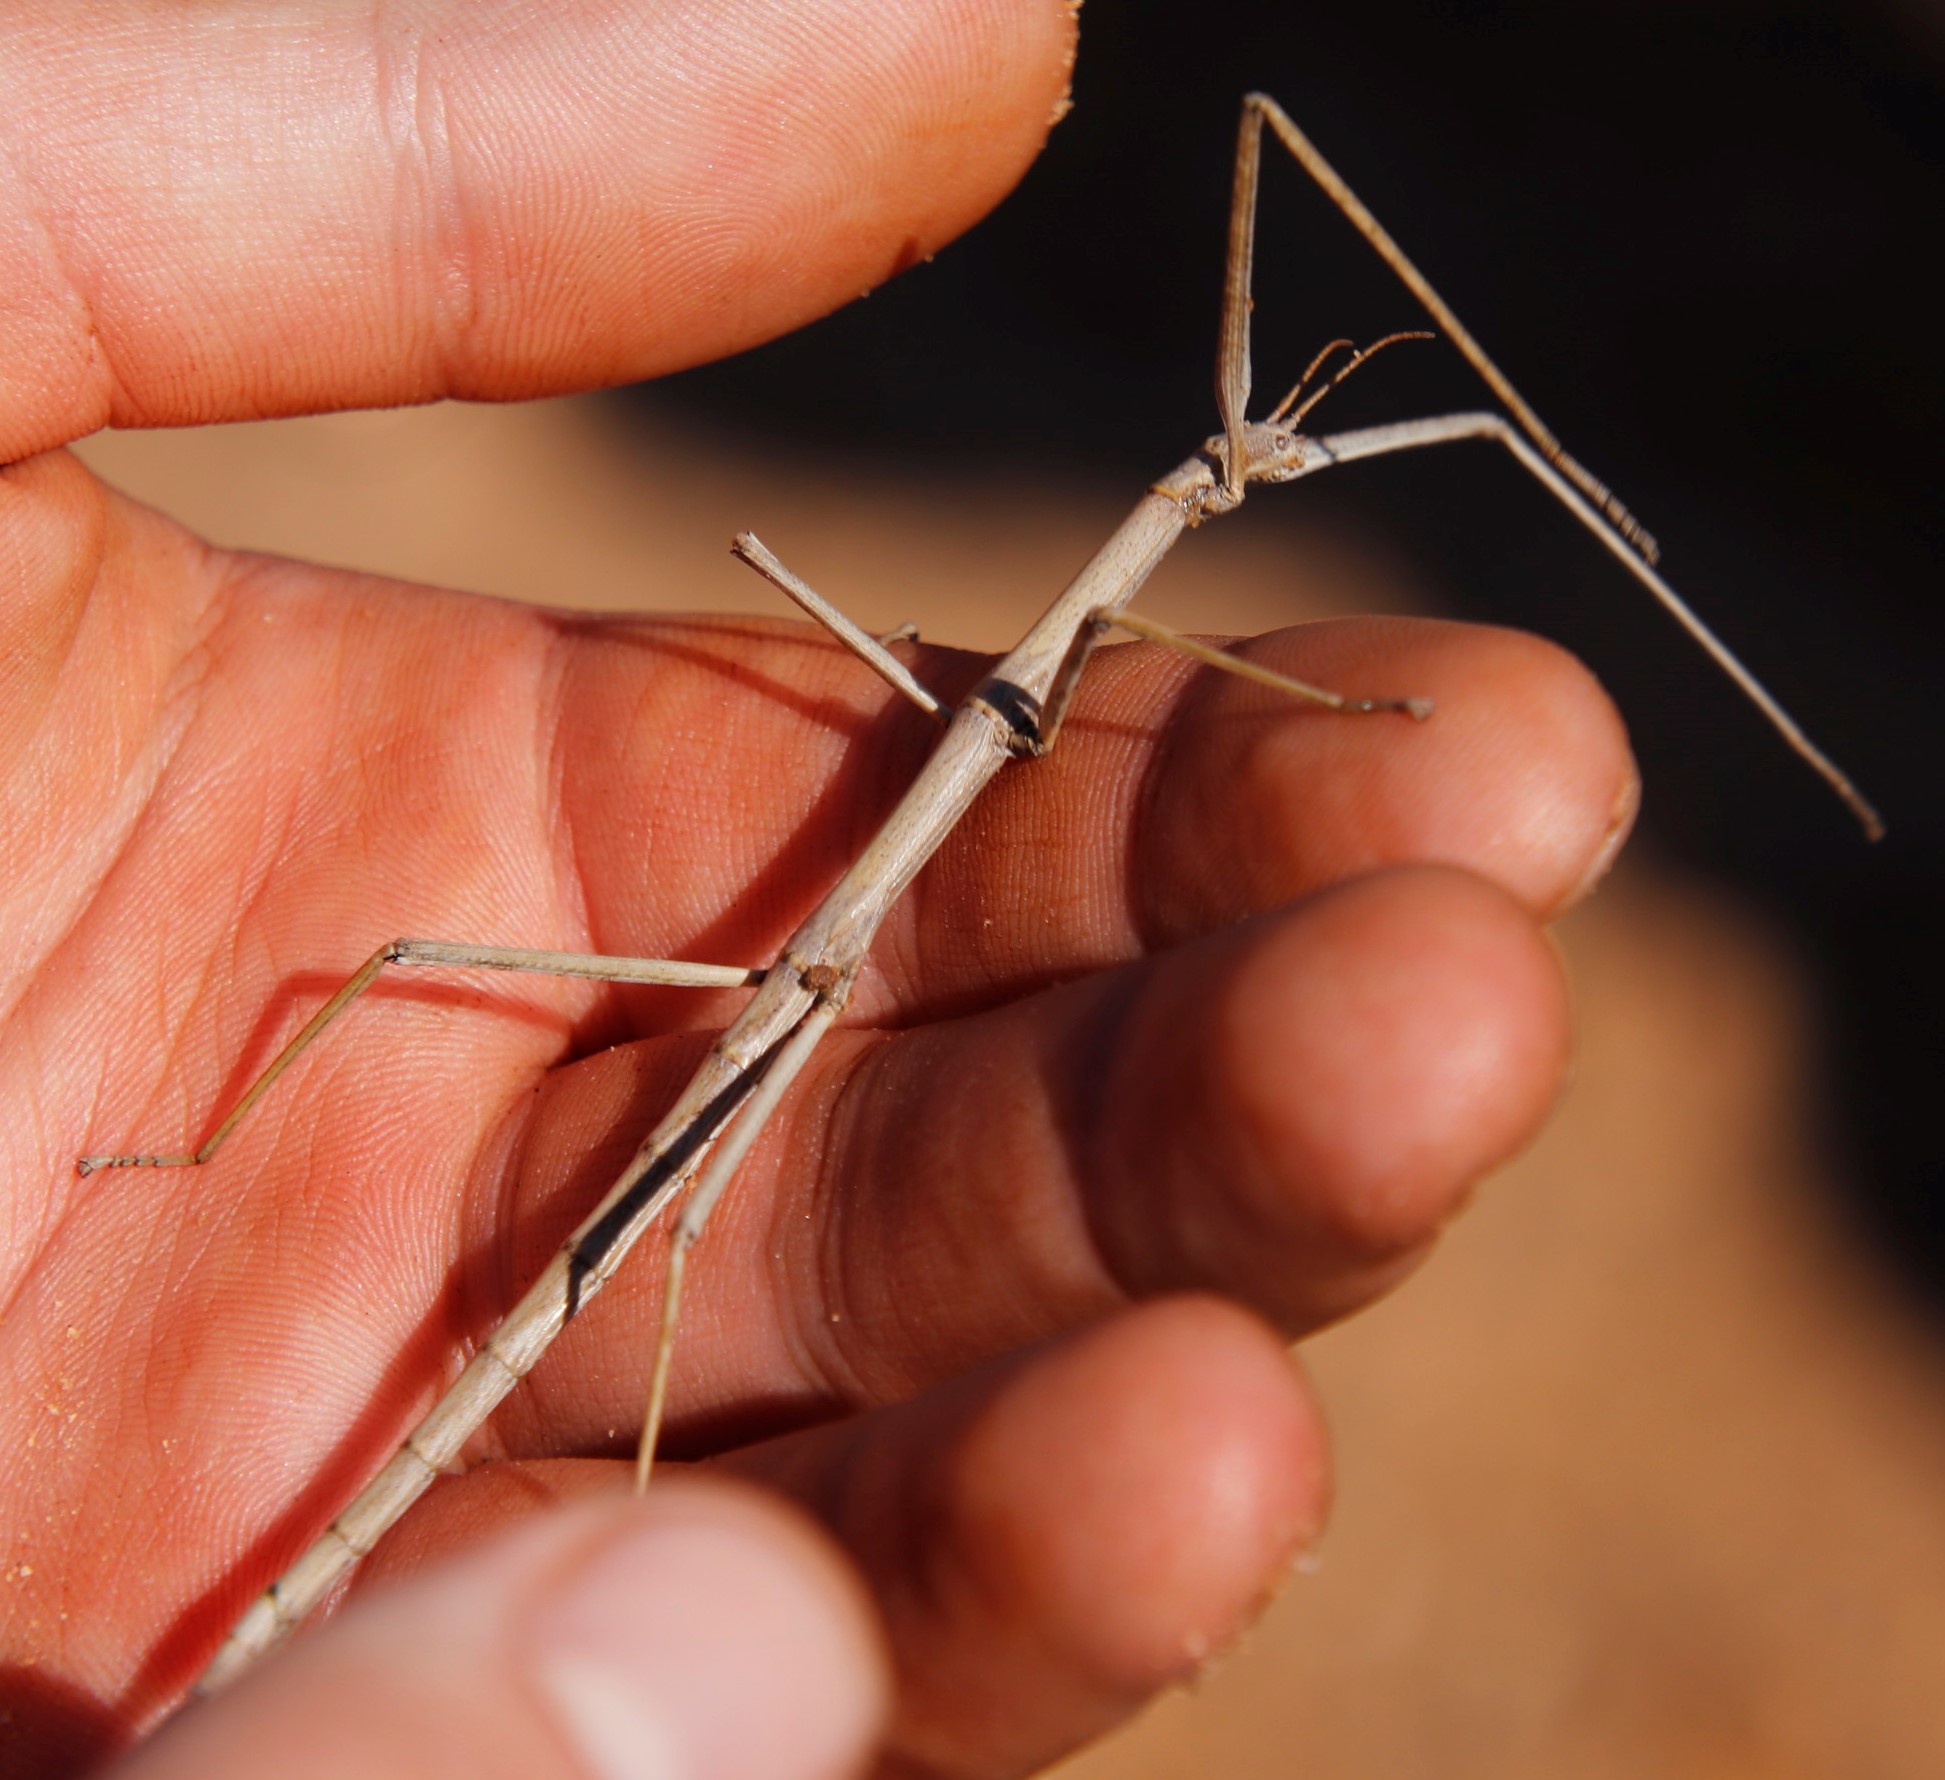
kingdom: Animalia
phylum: Arthropoda
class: Insecta
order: Phasmida
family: Bacillidae
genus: Phalces
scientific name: Phalces brevis
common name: Cape stick insect
